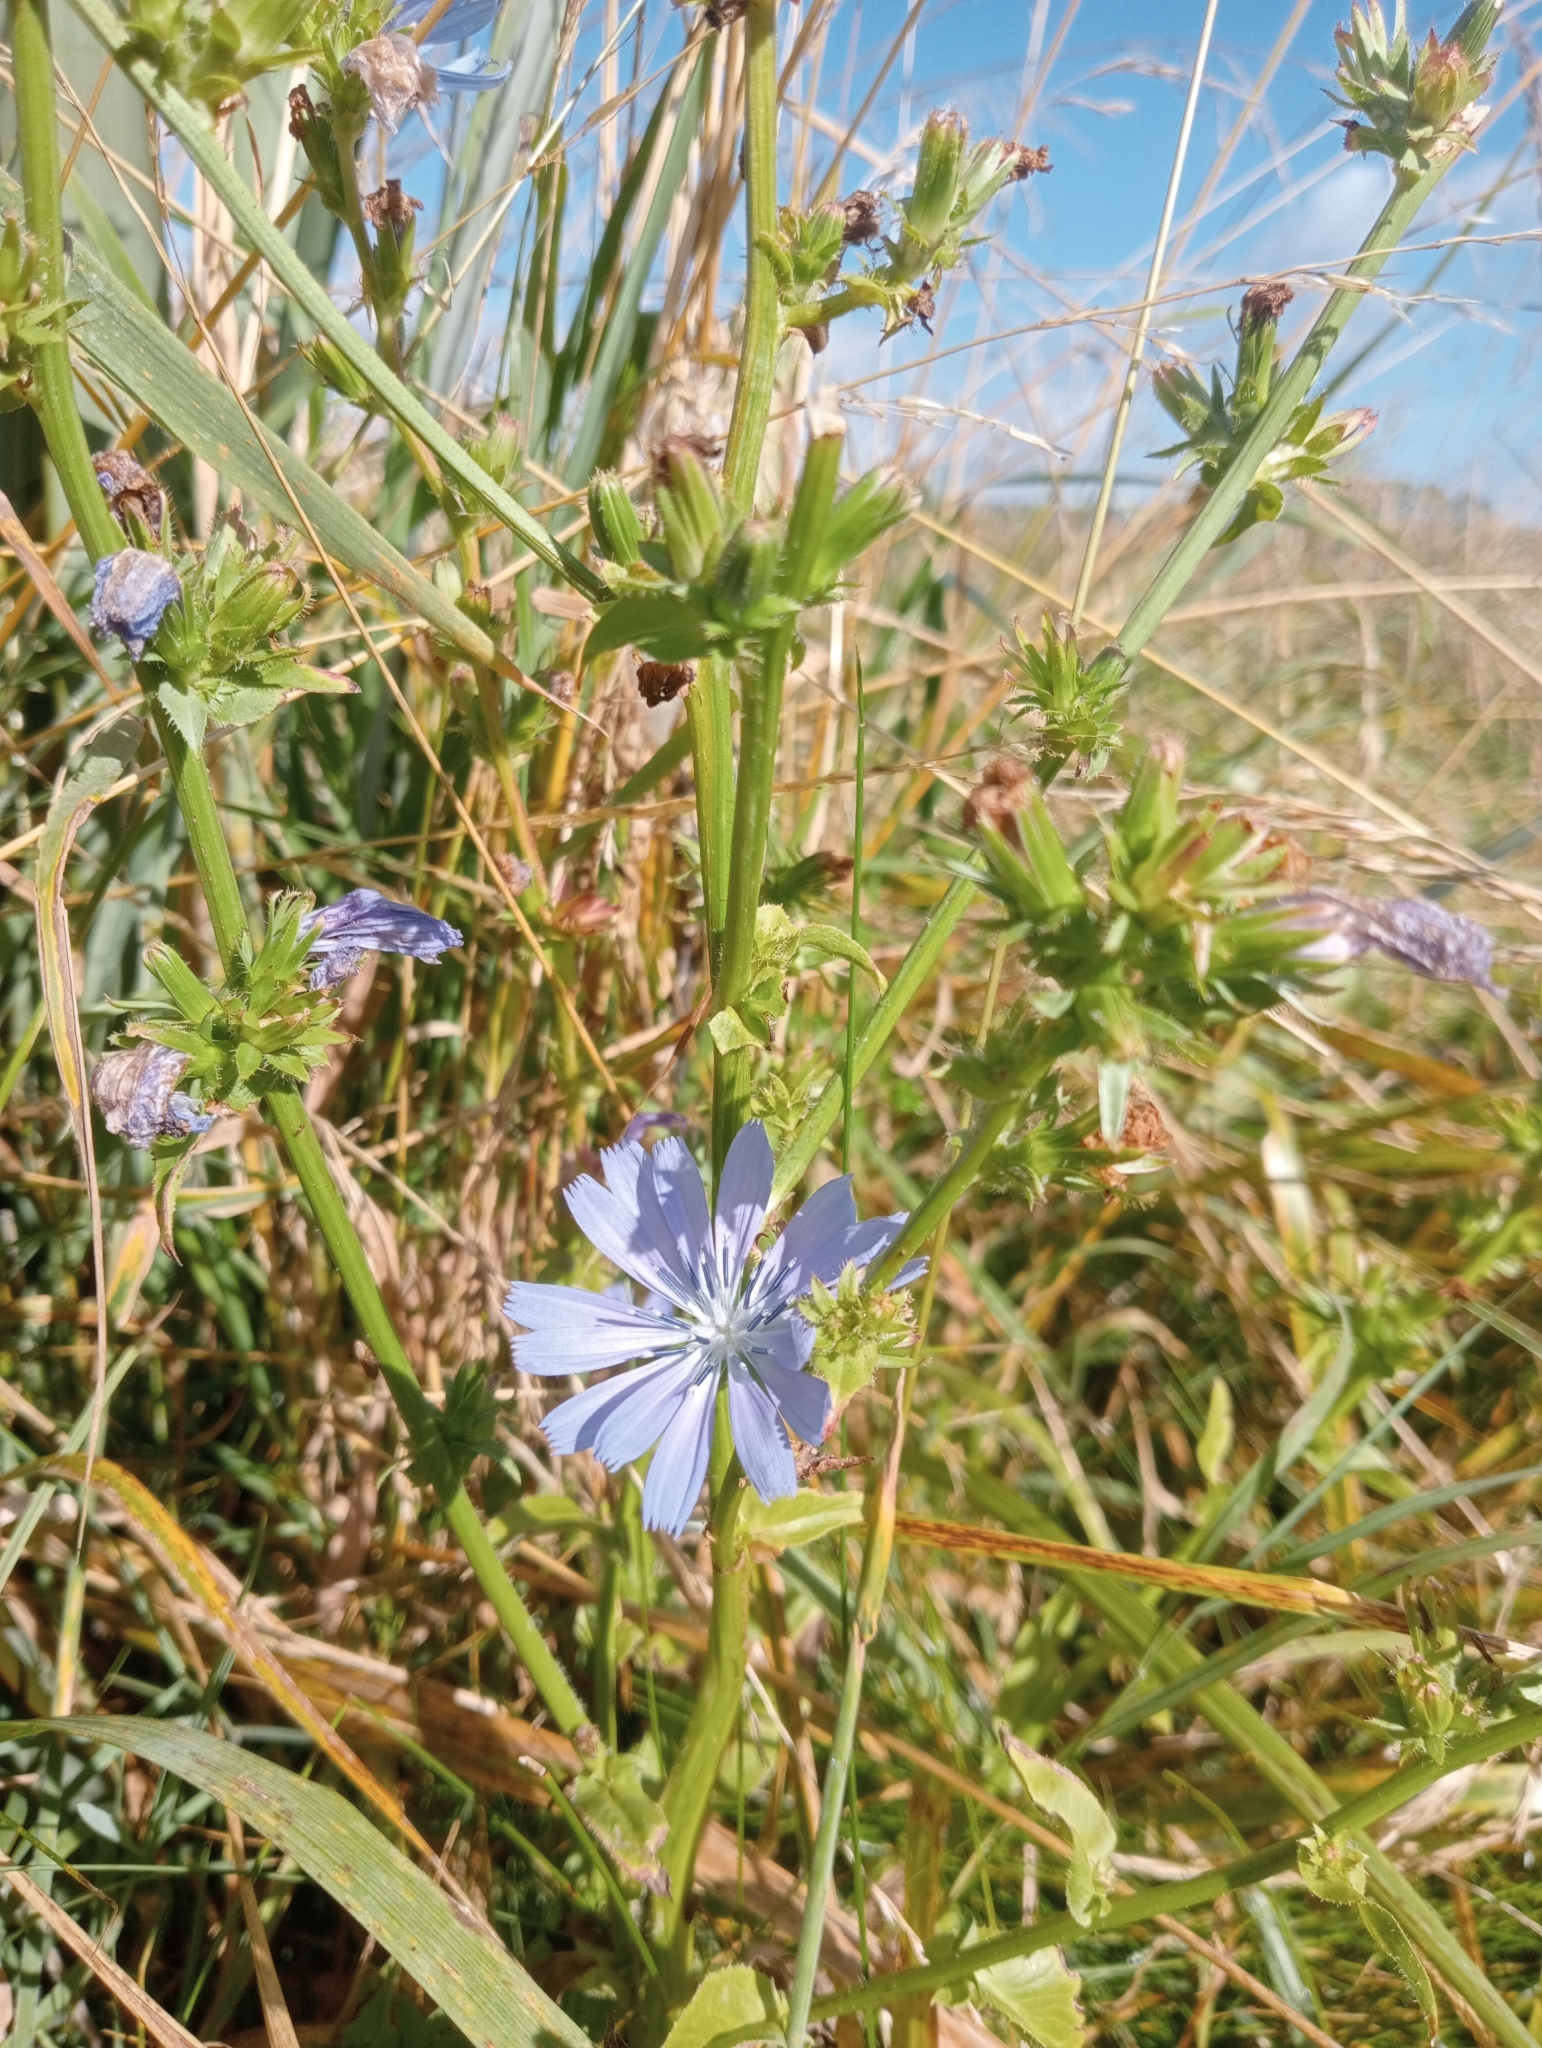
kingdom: Plantae
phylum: Tracheophyta
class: Magnoliopsida
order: Asterales
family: Asteraceae
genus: Cichorium
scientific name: Cichorium intybus
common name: Chicory
